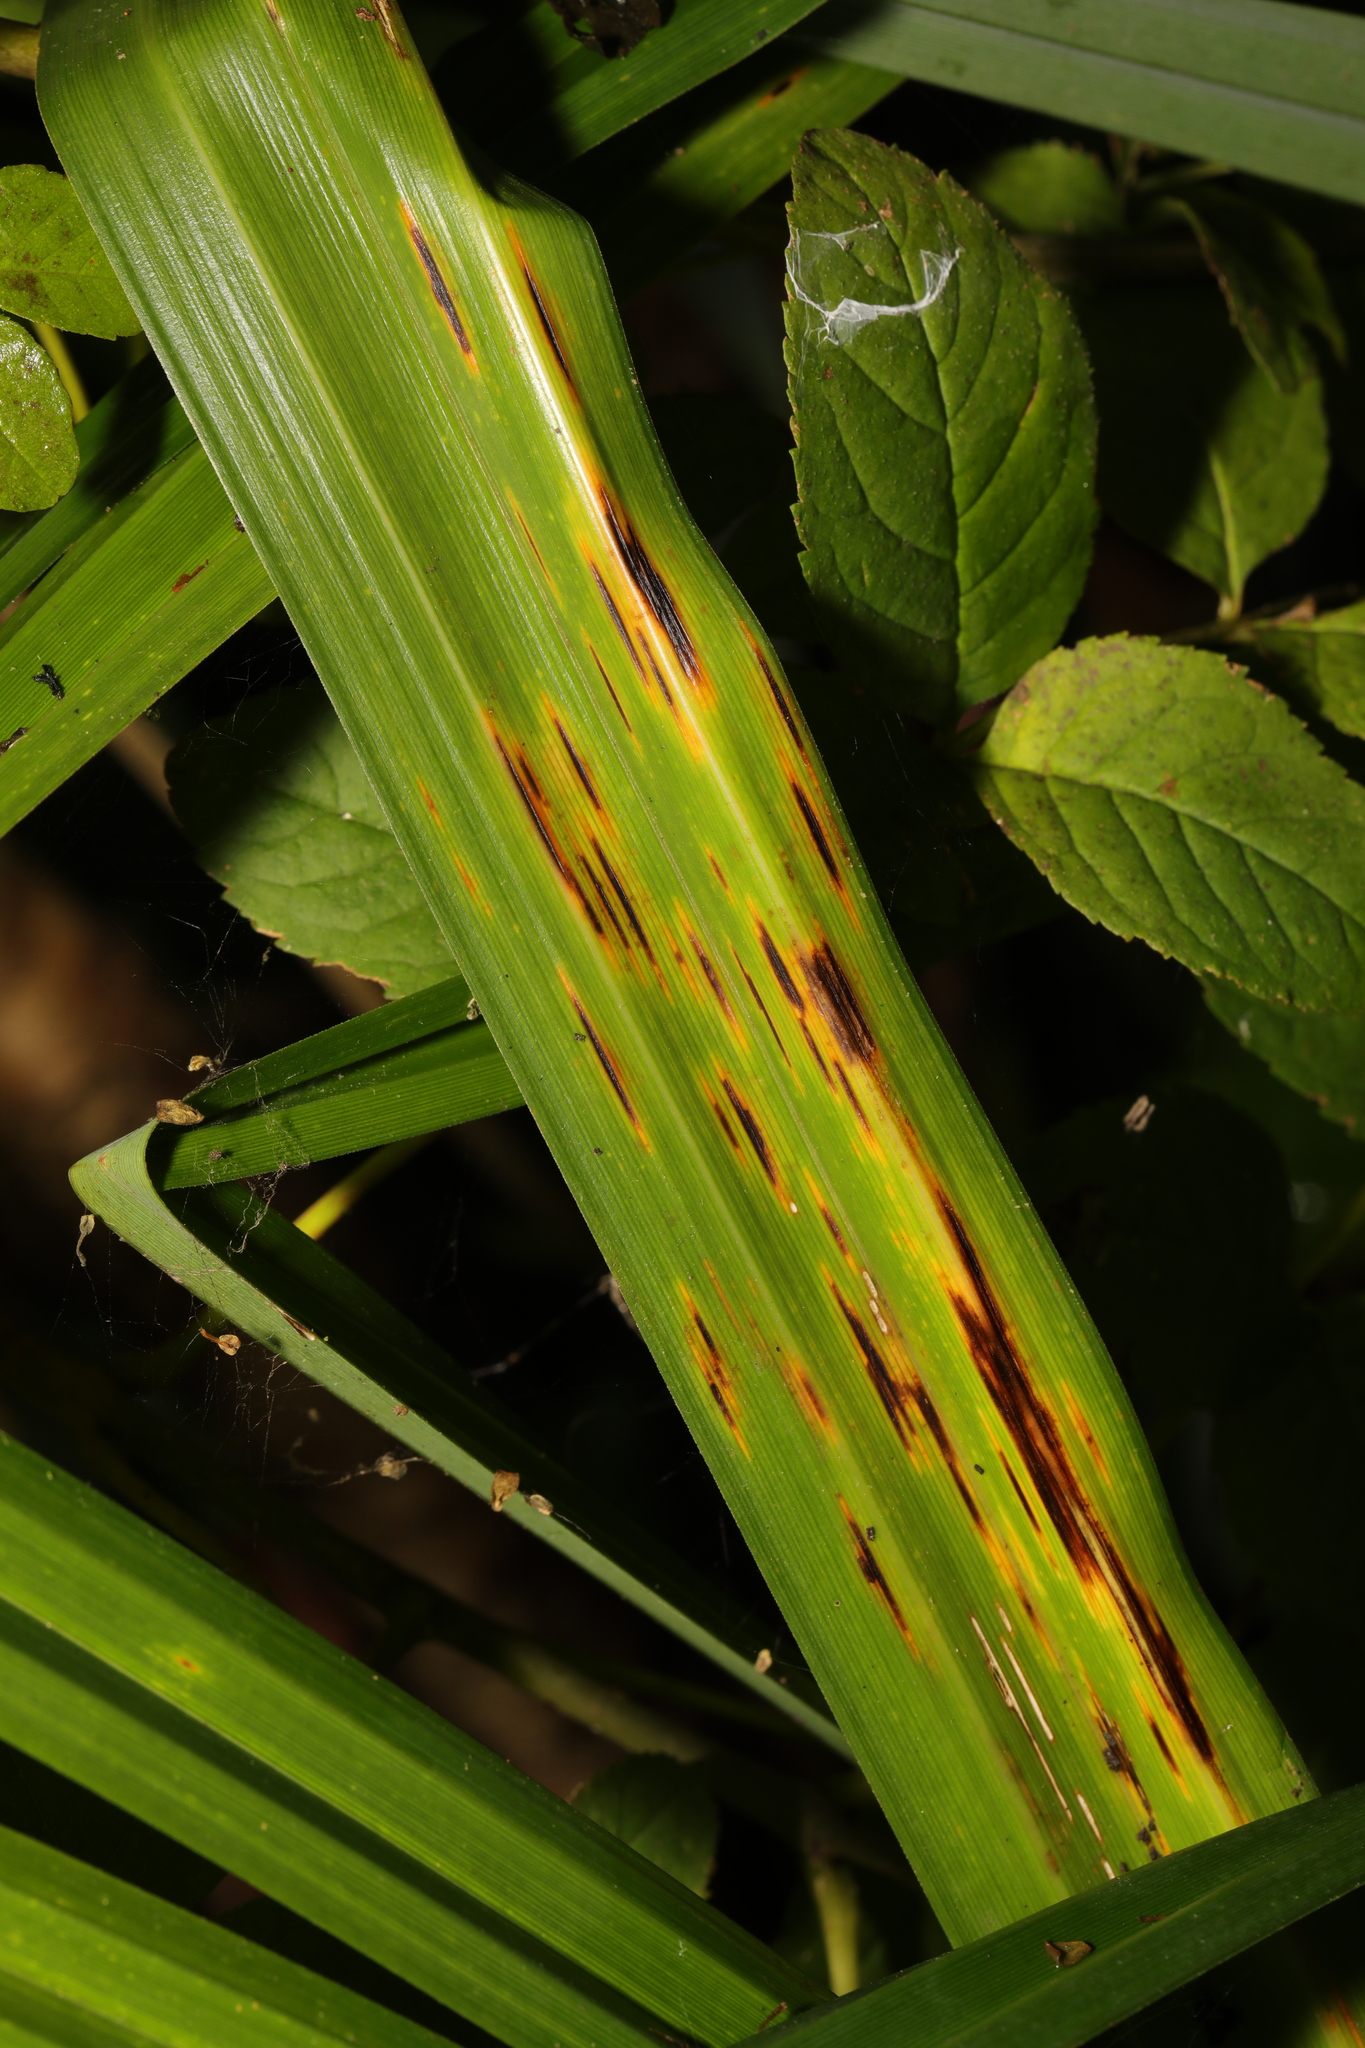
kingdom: Fungi
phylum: Basidiomycota
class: Pucciniomycetes
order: Pucciniales
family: Pucciniaceae
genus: Puccinia
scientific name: Puccinia caricina
